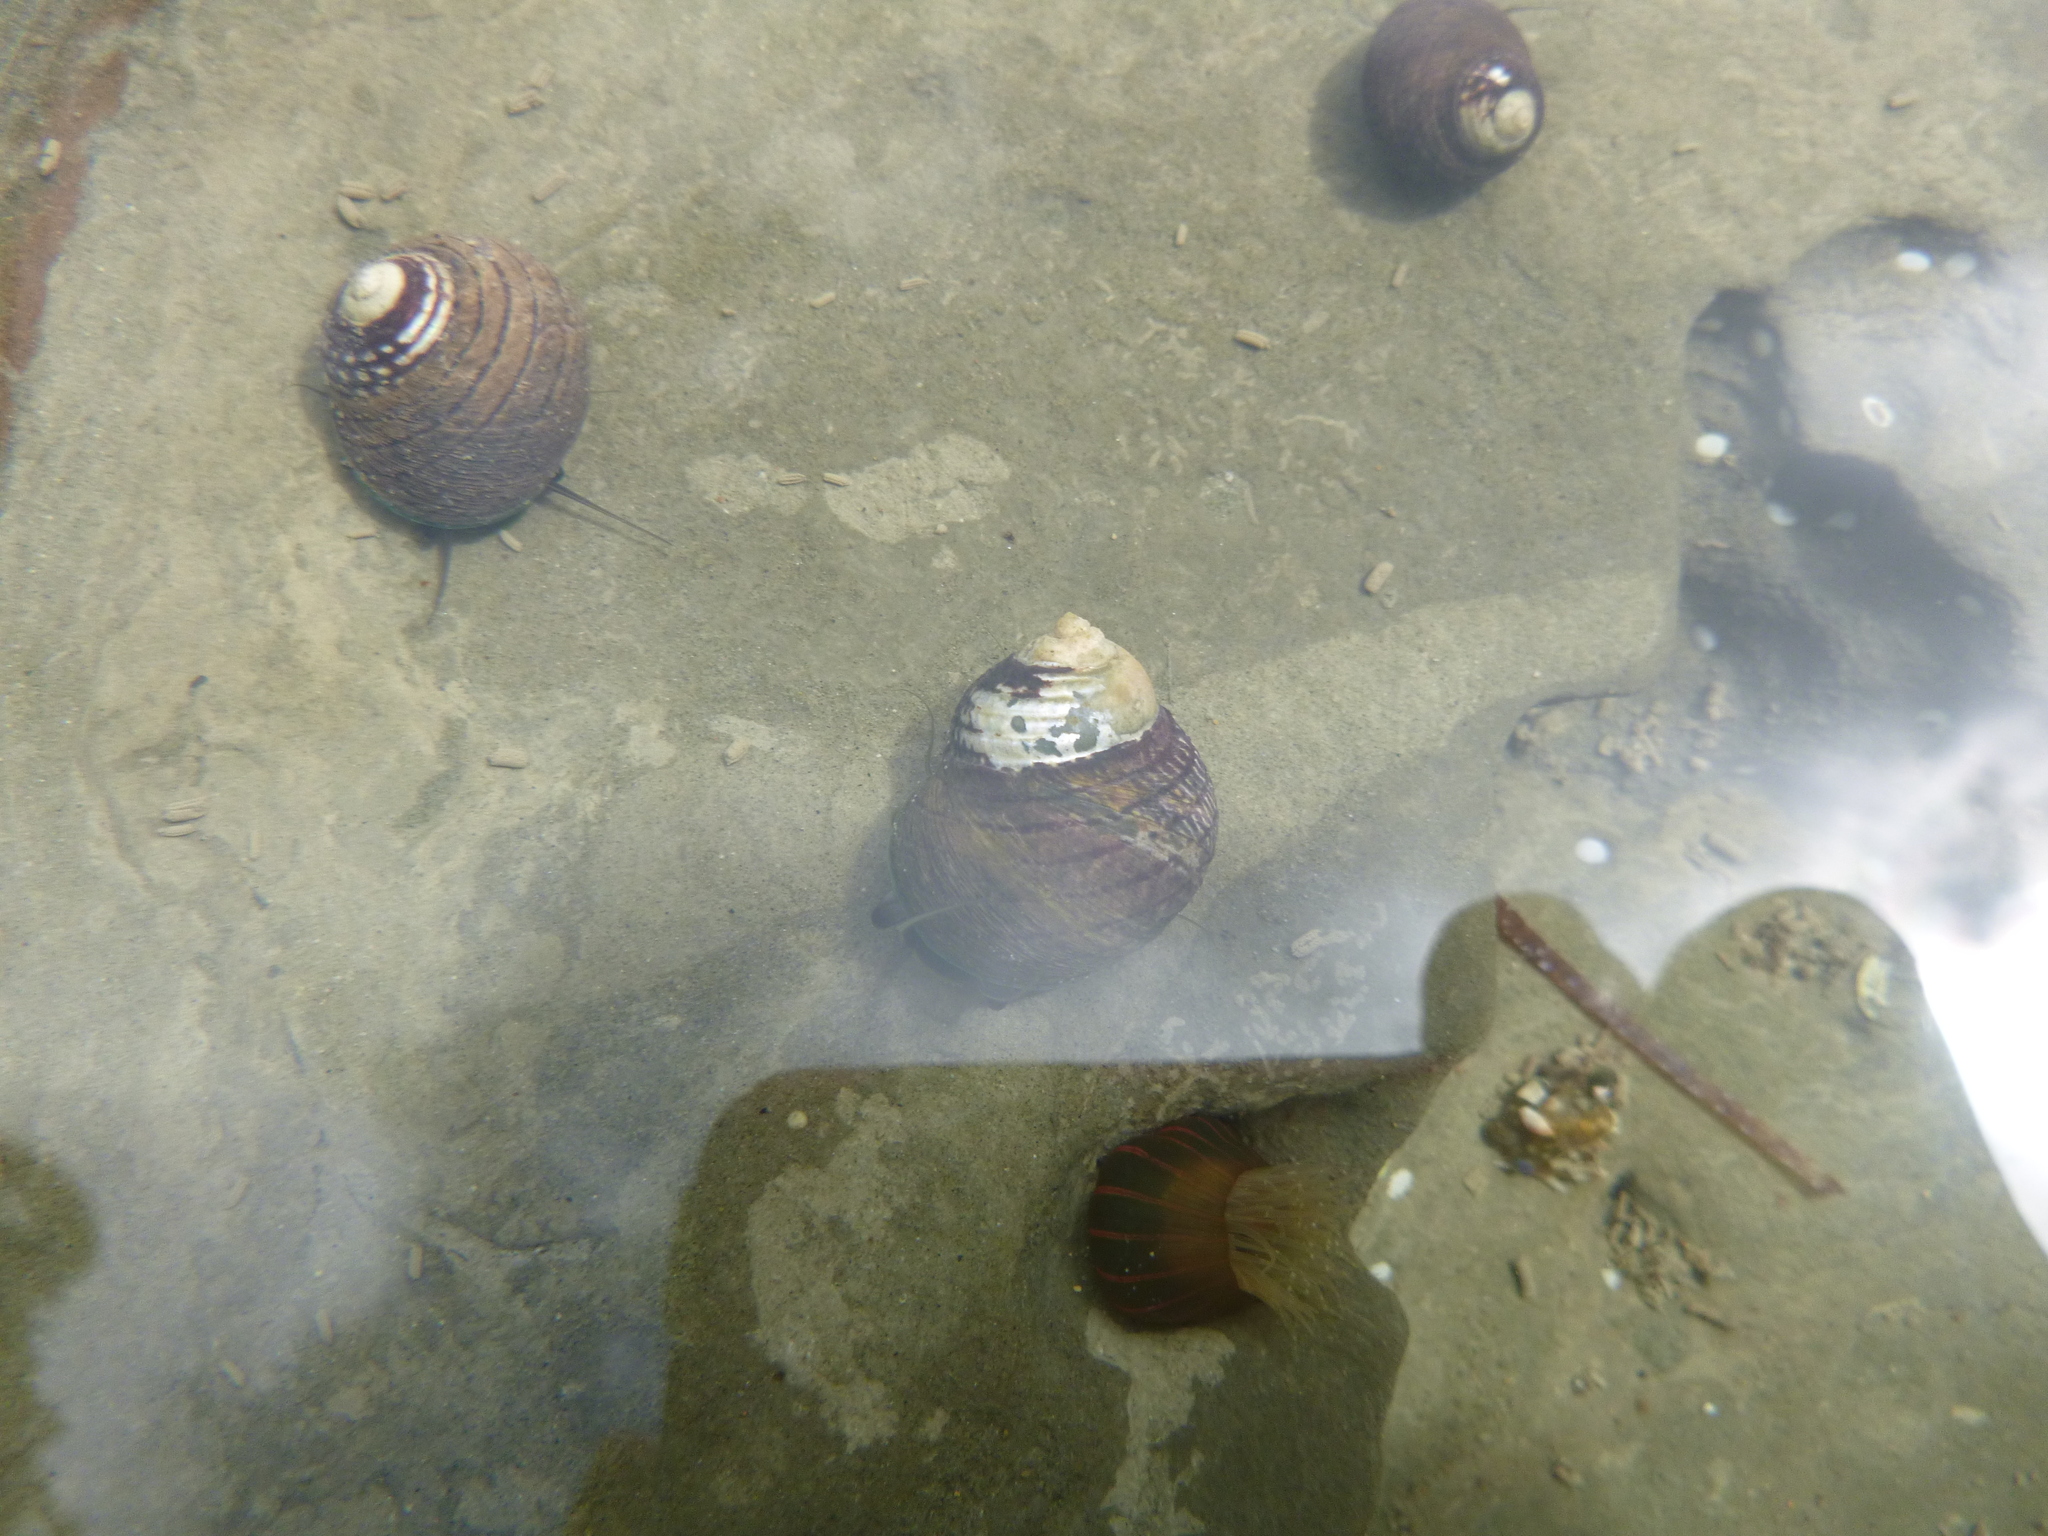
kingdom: Animalia
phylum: Mollusca
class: Gastropoda
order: Trochida
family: Trochidae
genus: Diloma
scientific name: Diloma aethiops
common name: Scorched monodont
